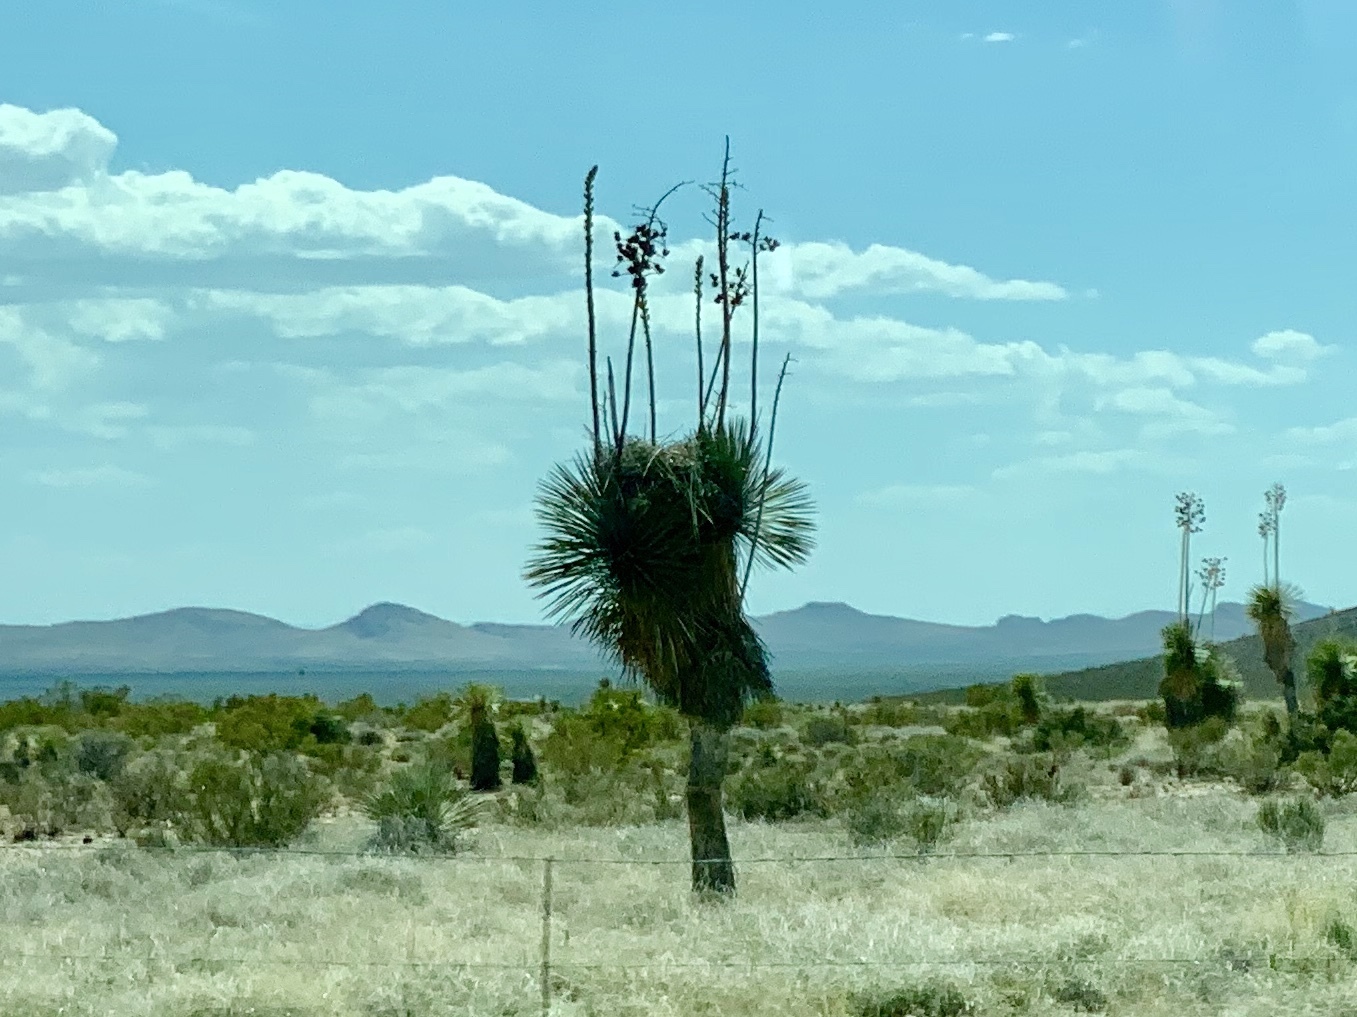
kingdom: Plantae
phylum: Tracheophyta
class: Liliopsida
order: Asparagales
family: Asparagaceae
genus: Yucca
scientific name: Yucca elata
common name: Palmella
